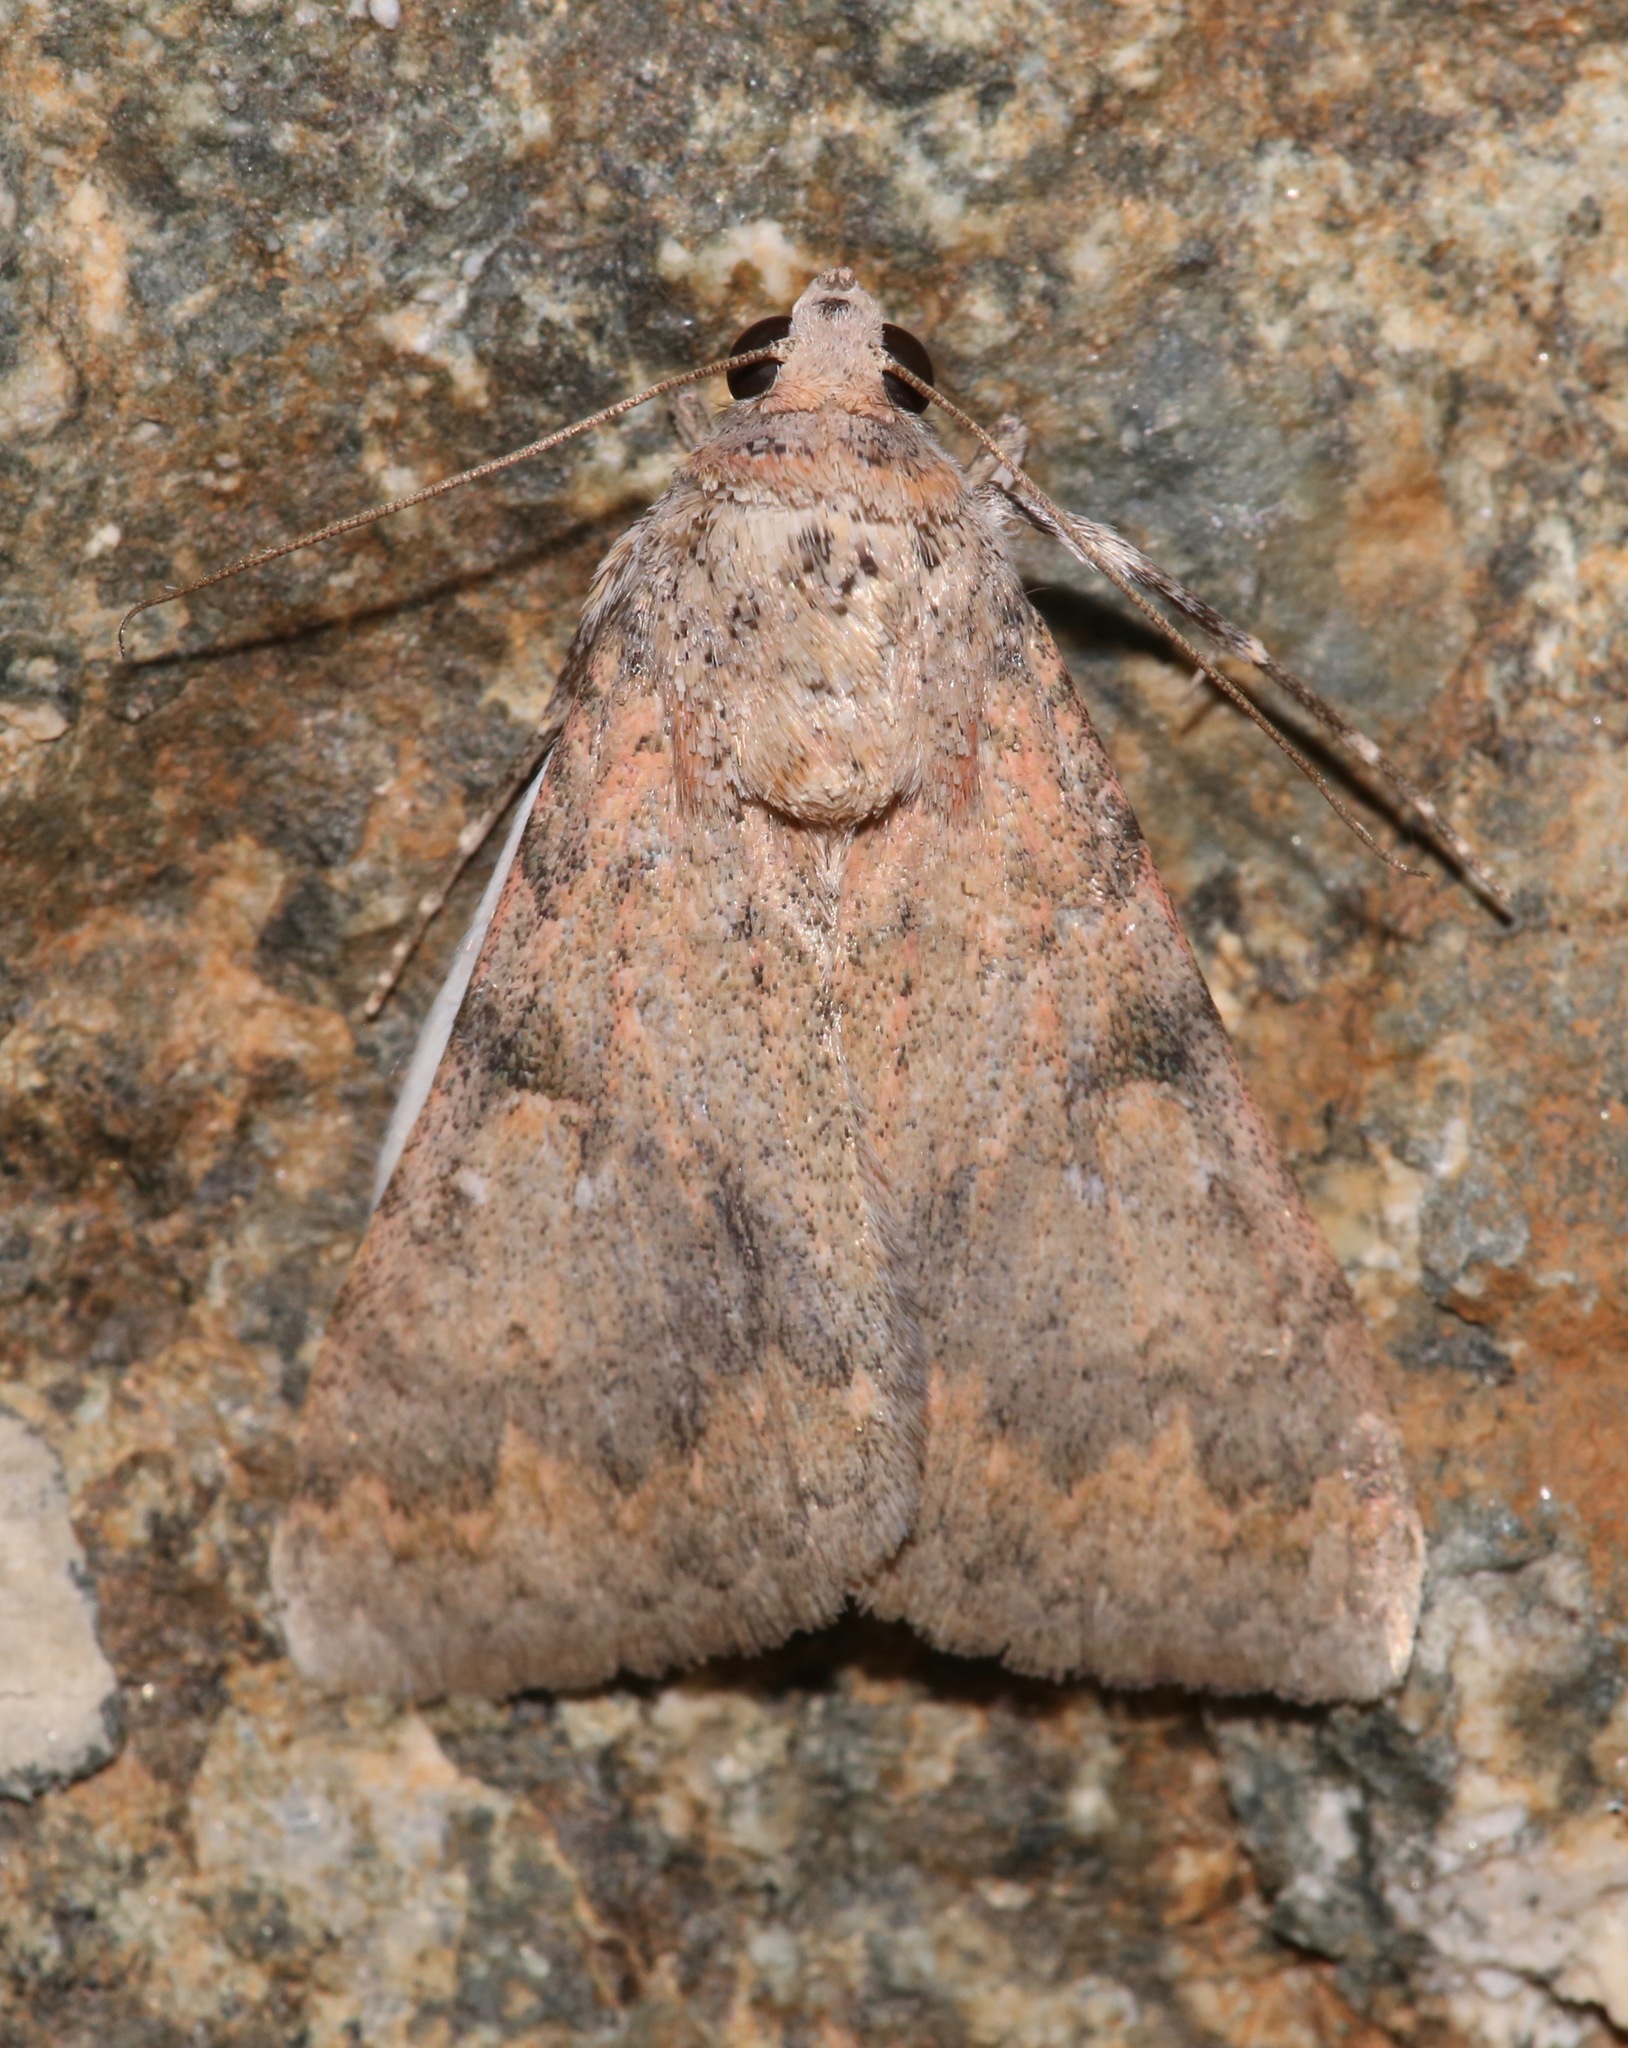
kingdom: Animalia
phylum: Arthropoda
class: Insecta
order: Lepidoptera
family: Erebidae
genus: Melipotis
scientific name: Melipotis jucunda
